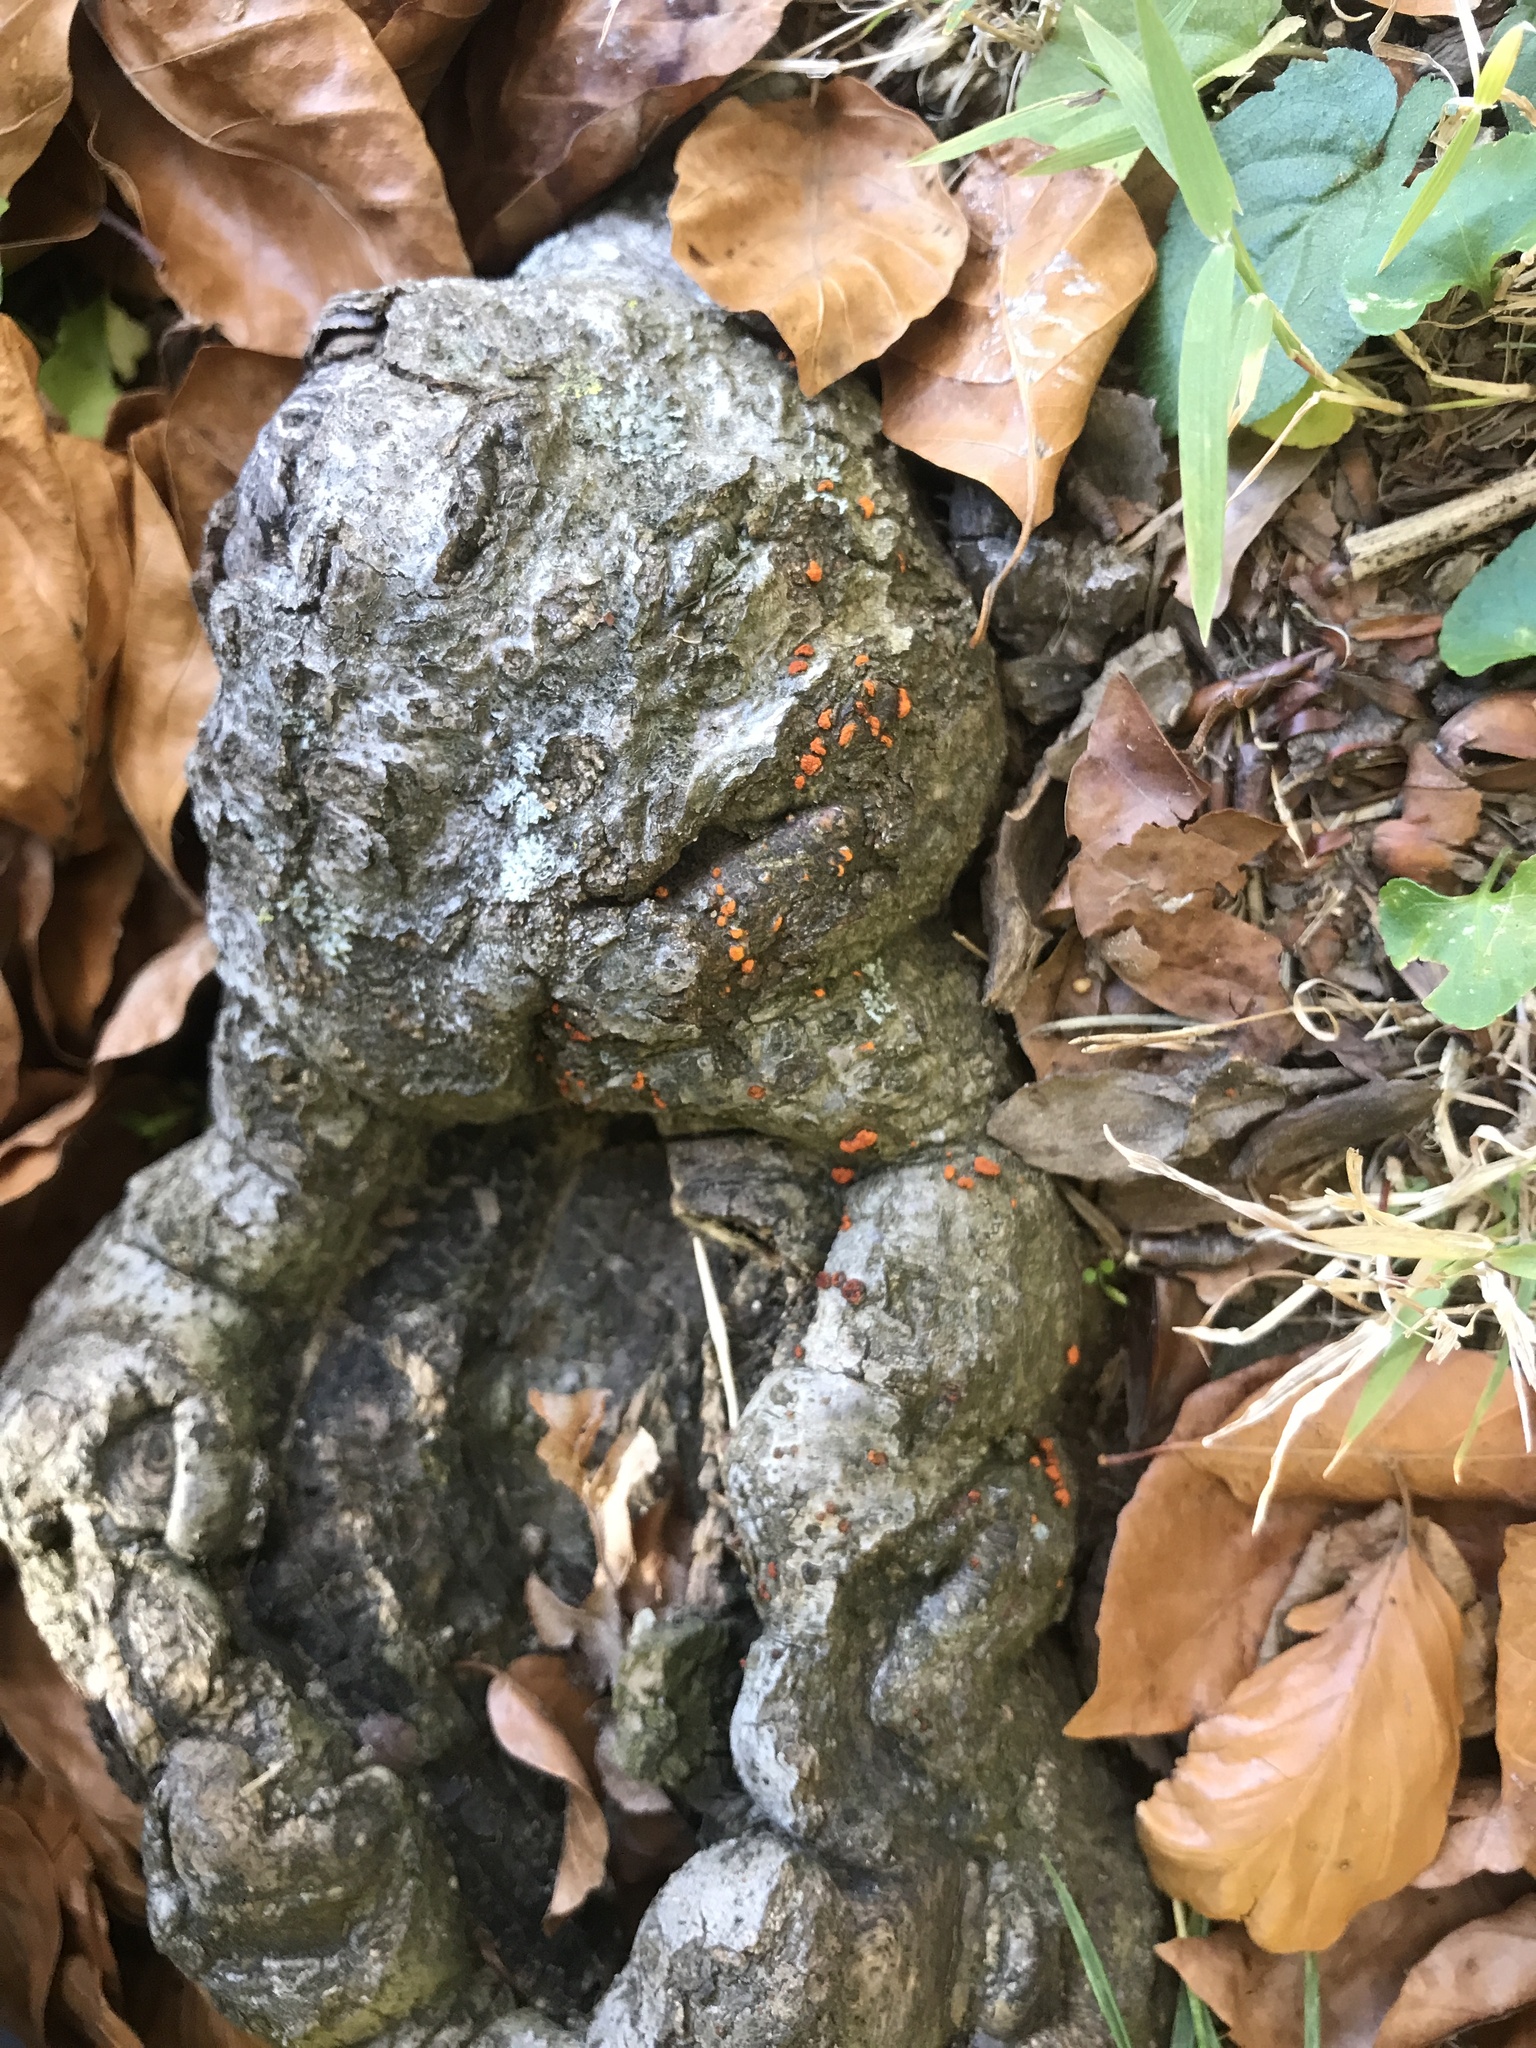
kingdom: Fungi
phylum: Ascomycota
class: Sordariomycetes
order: Diaporthales
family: Cryphonectriaceae
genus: Amphilogia
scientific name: Amphilogia gyrosa
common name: Orange hobnail canker
